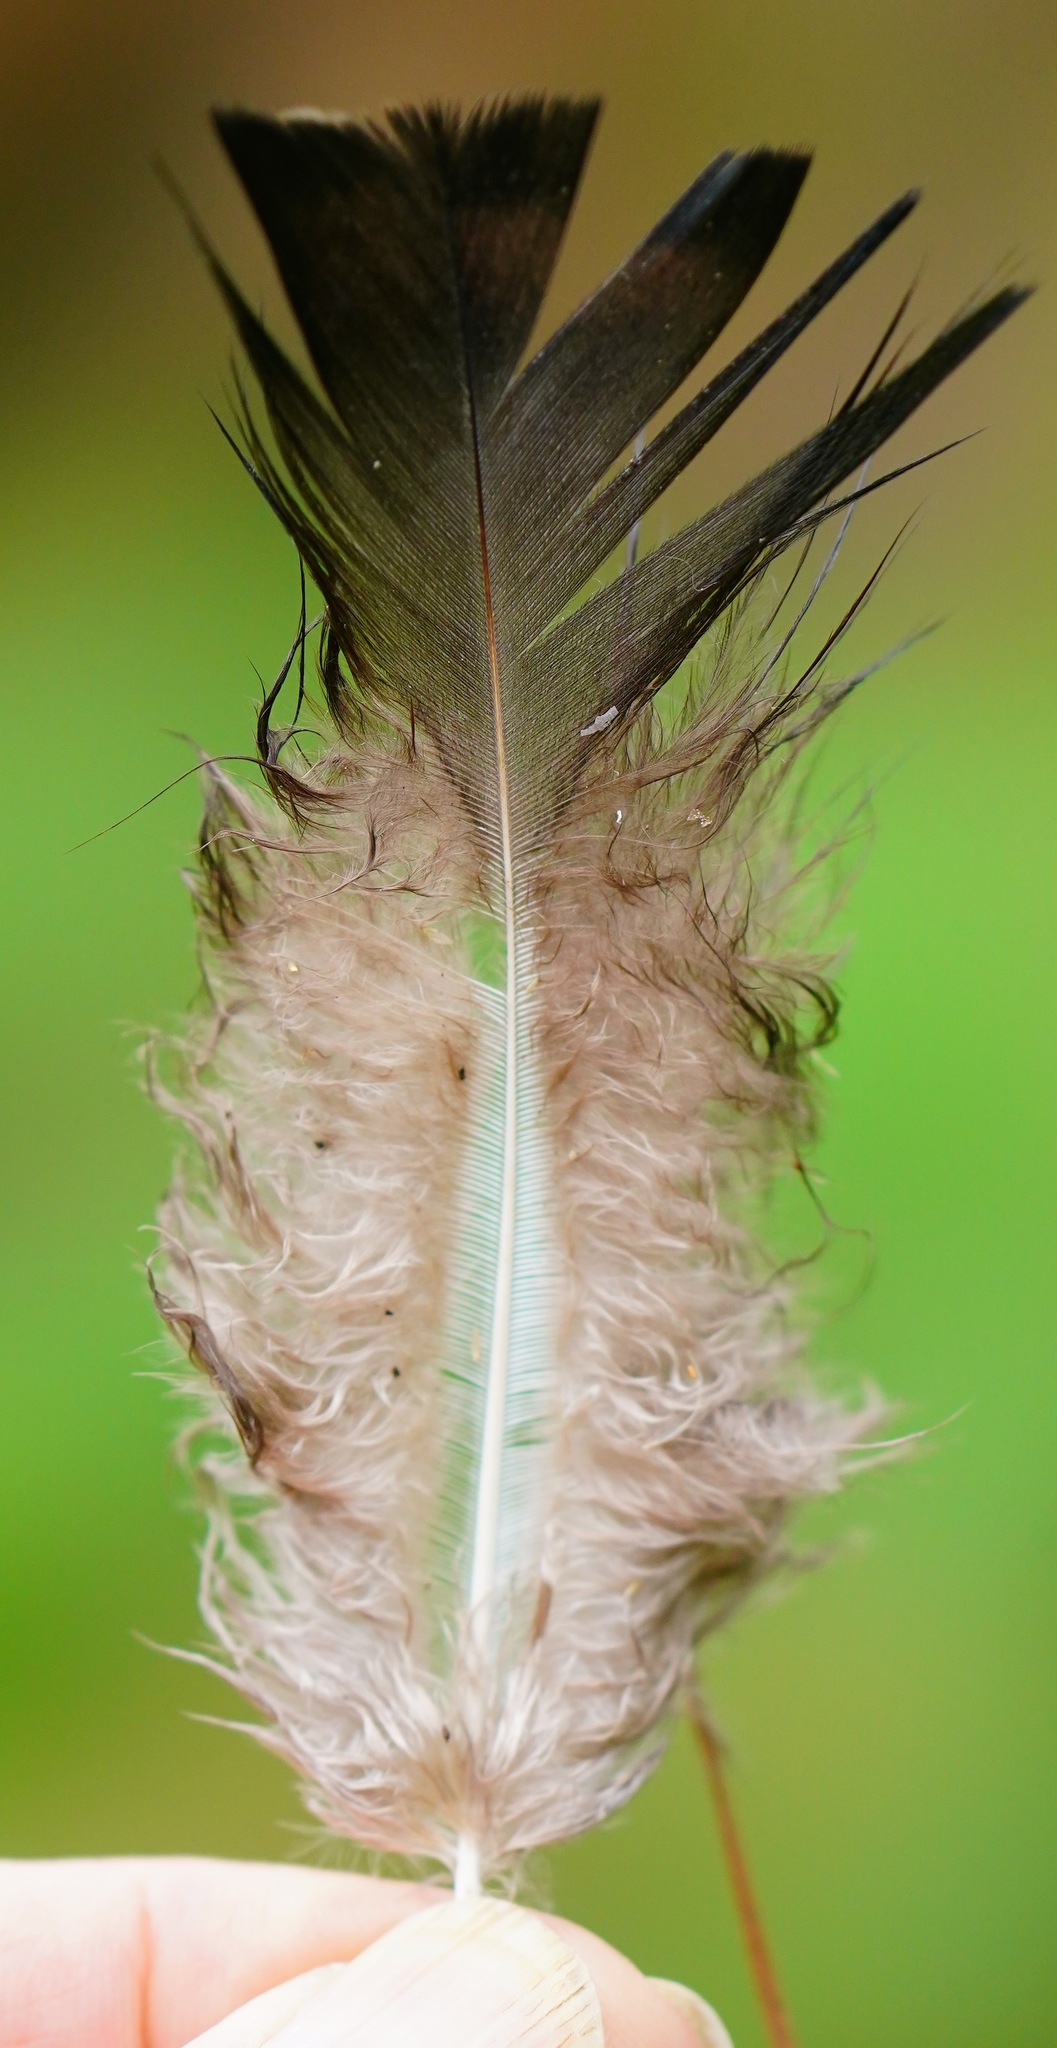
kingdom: Animalia
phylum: Chordata
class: Aves
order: Galliformes
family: Phasianidae
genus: Meleagris
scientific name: Meleagris gallopavo
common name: Wild turkey
